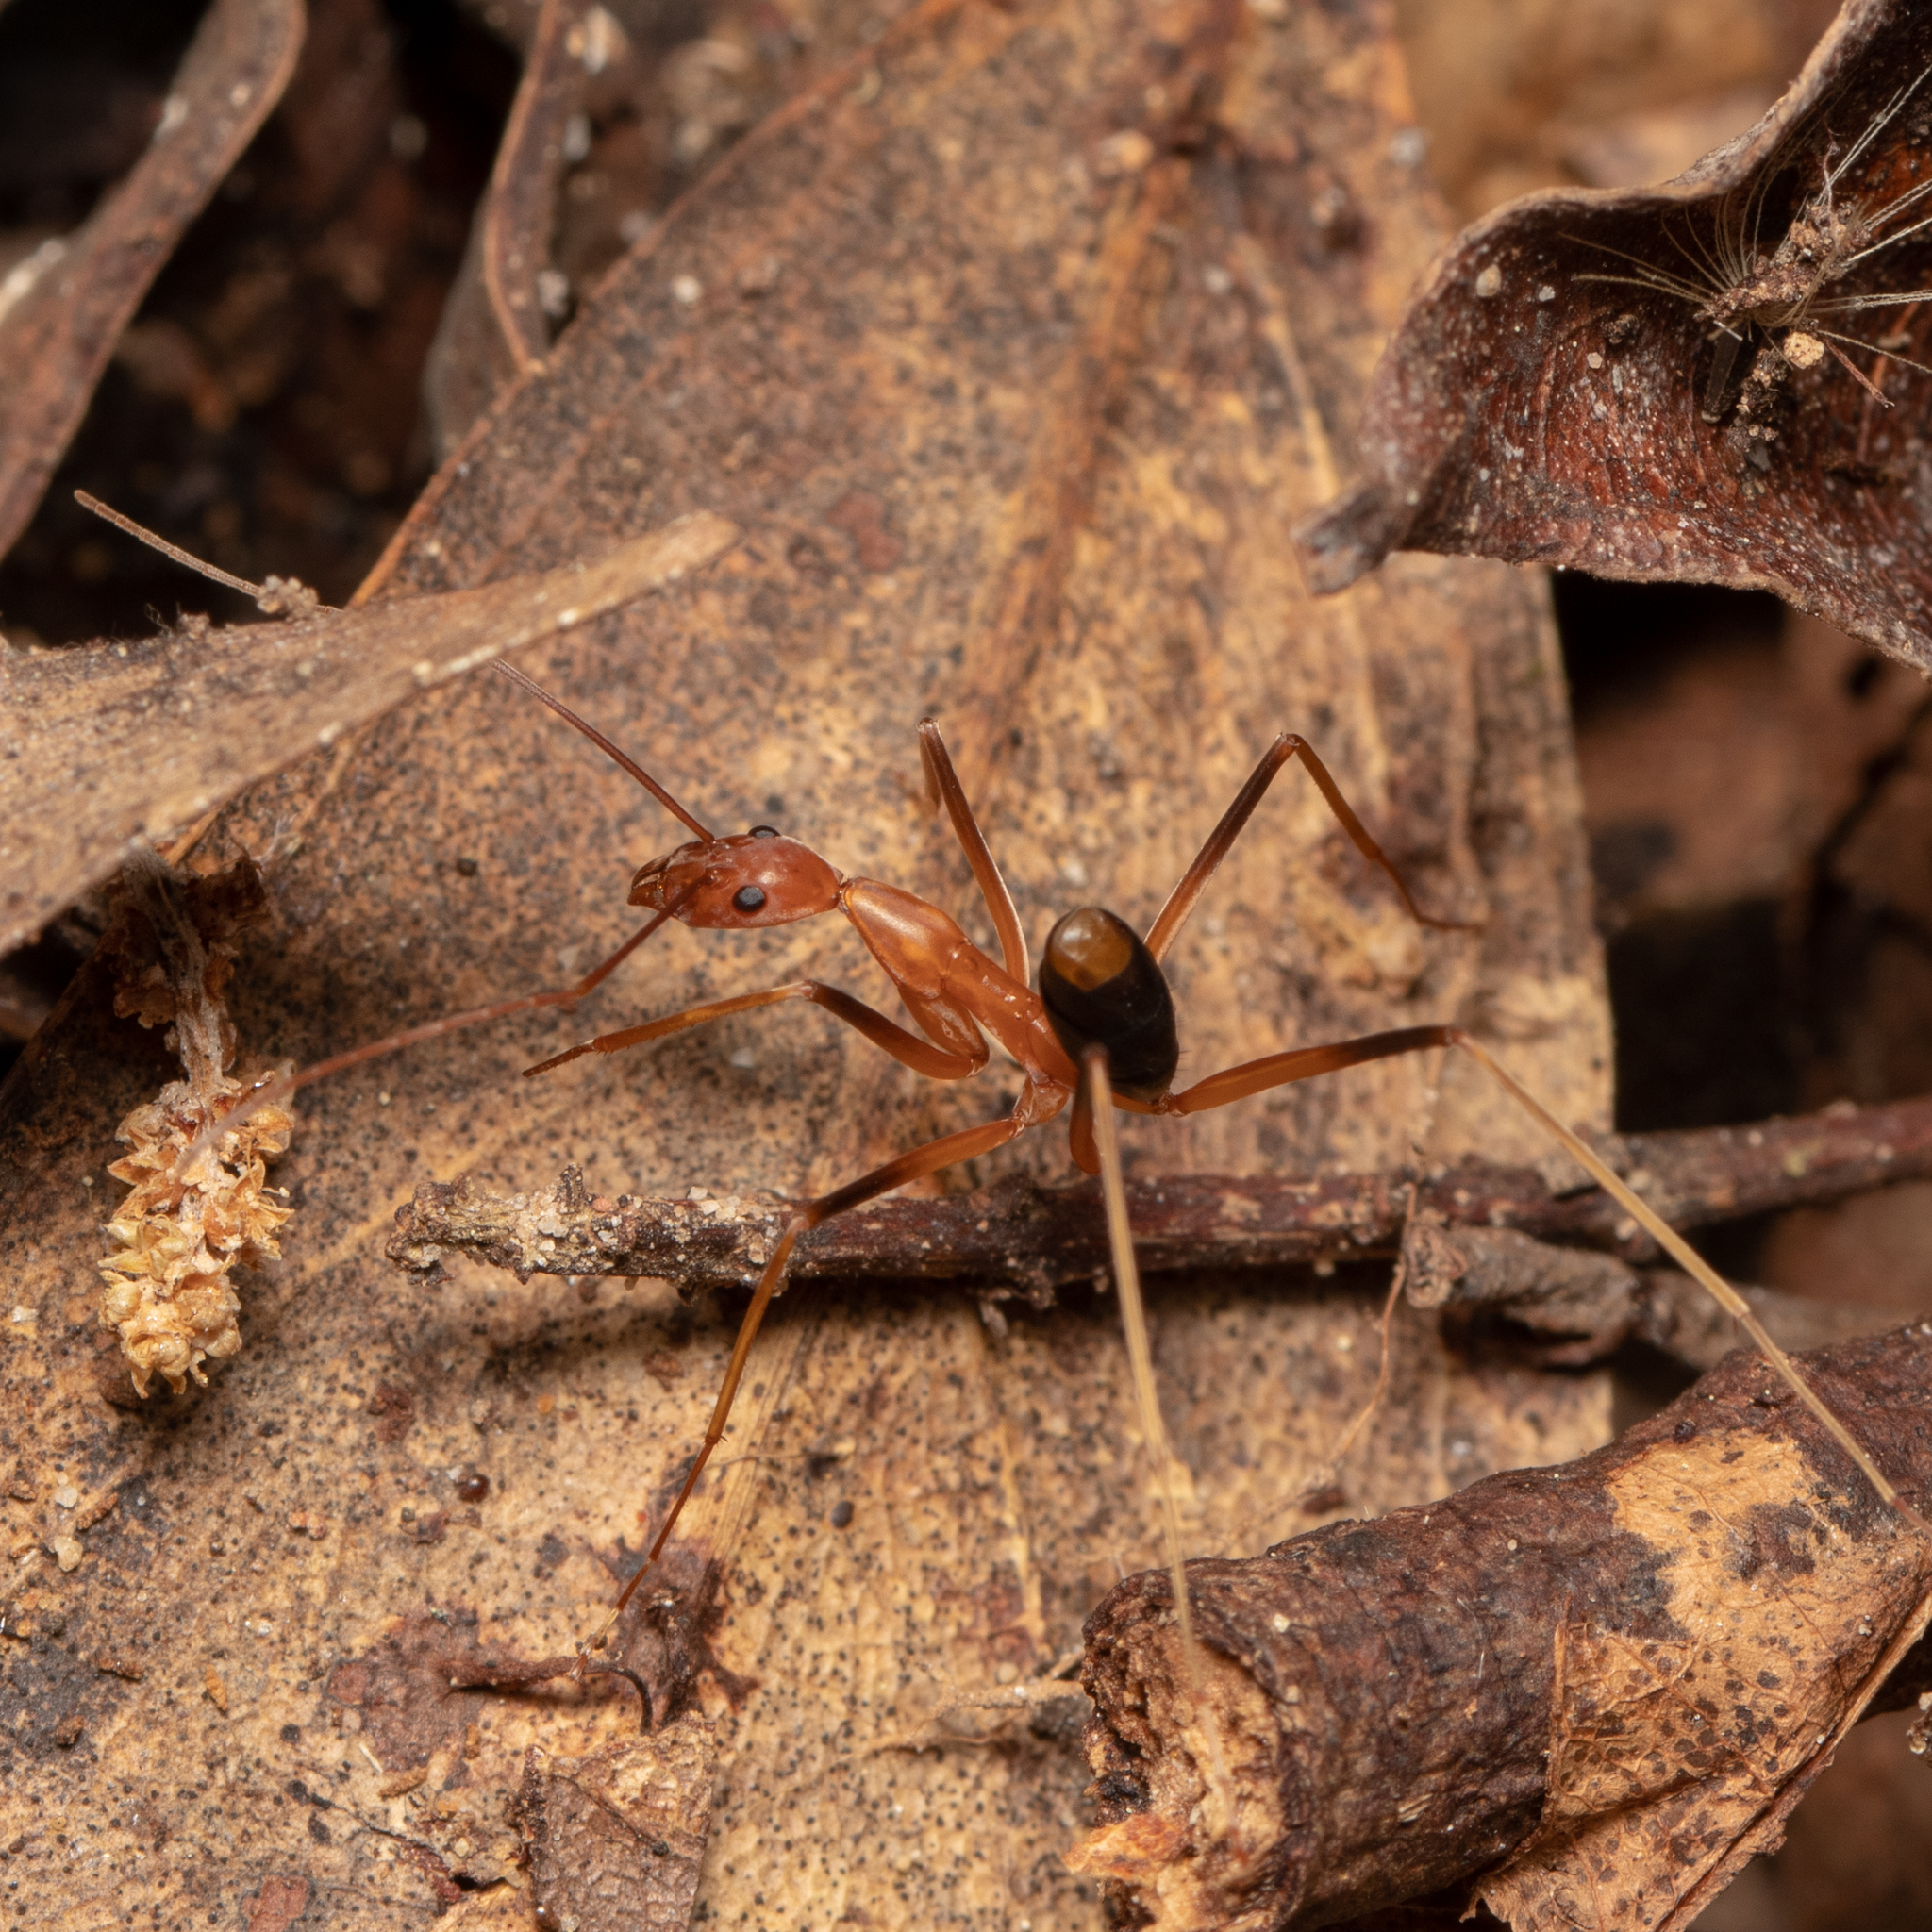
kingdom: Animalia
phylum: Arthropoda
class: Insecta
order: Hymenoptera
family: Formicidae
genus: Leptomyrmex
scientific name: Leptomyrmex rufipes
